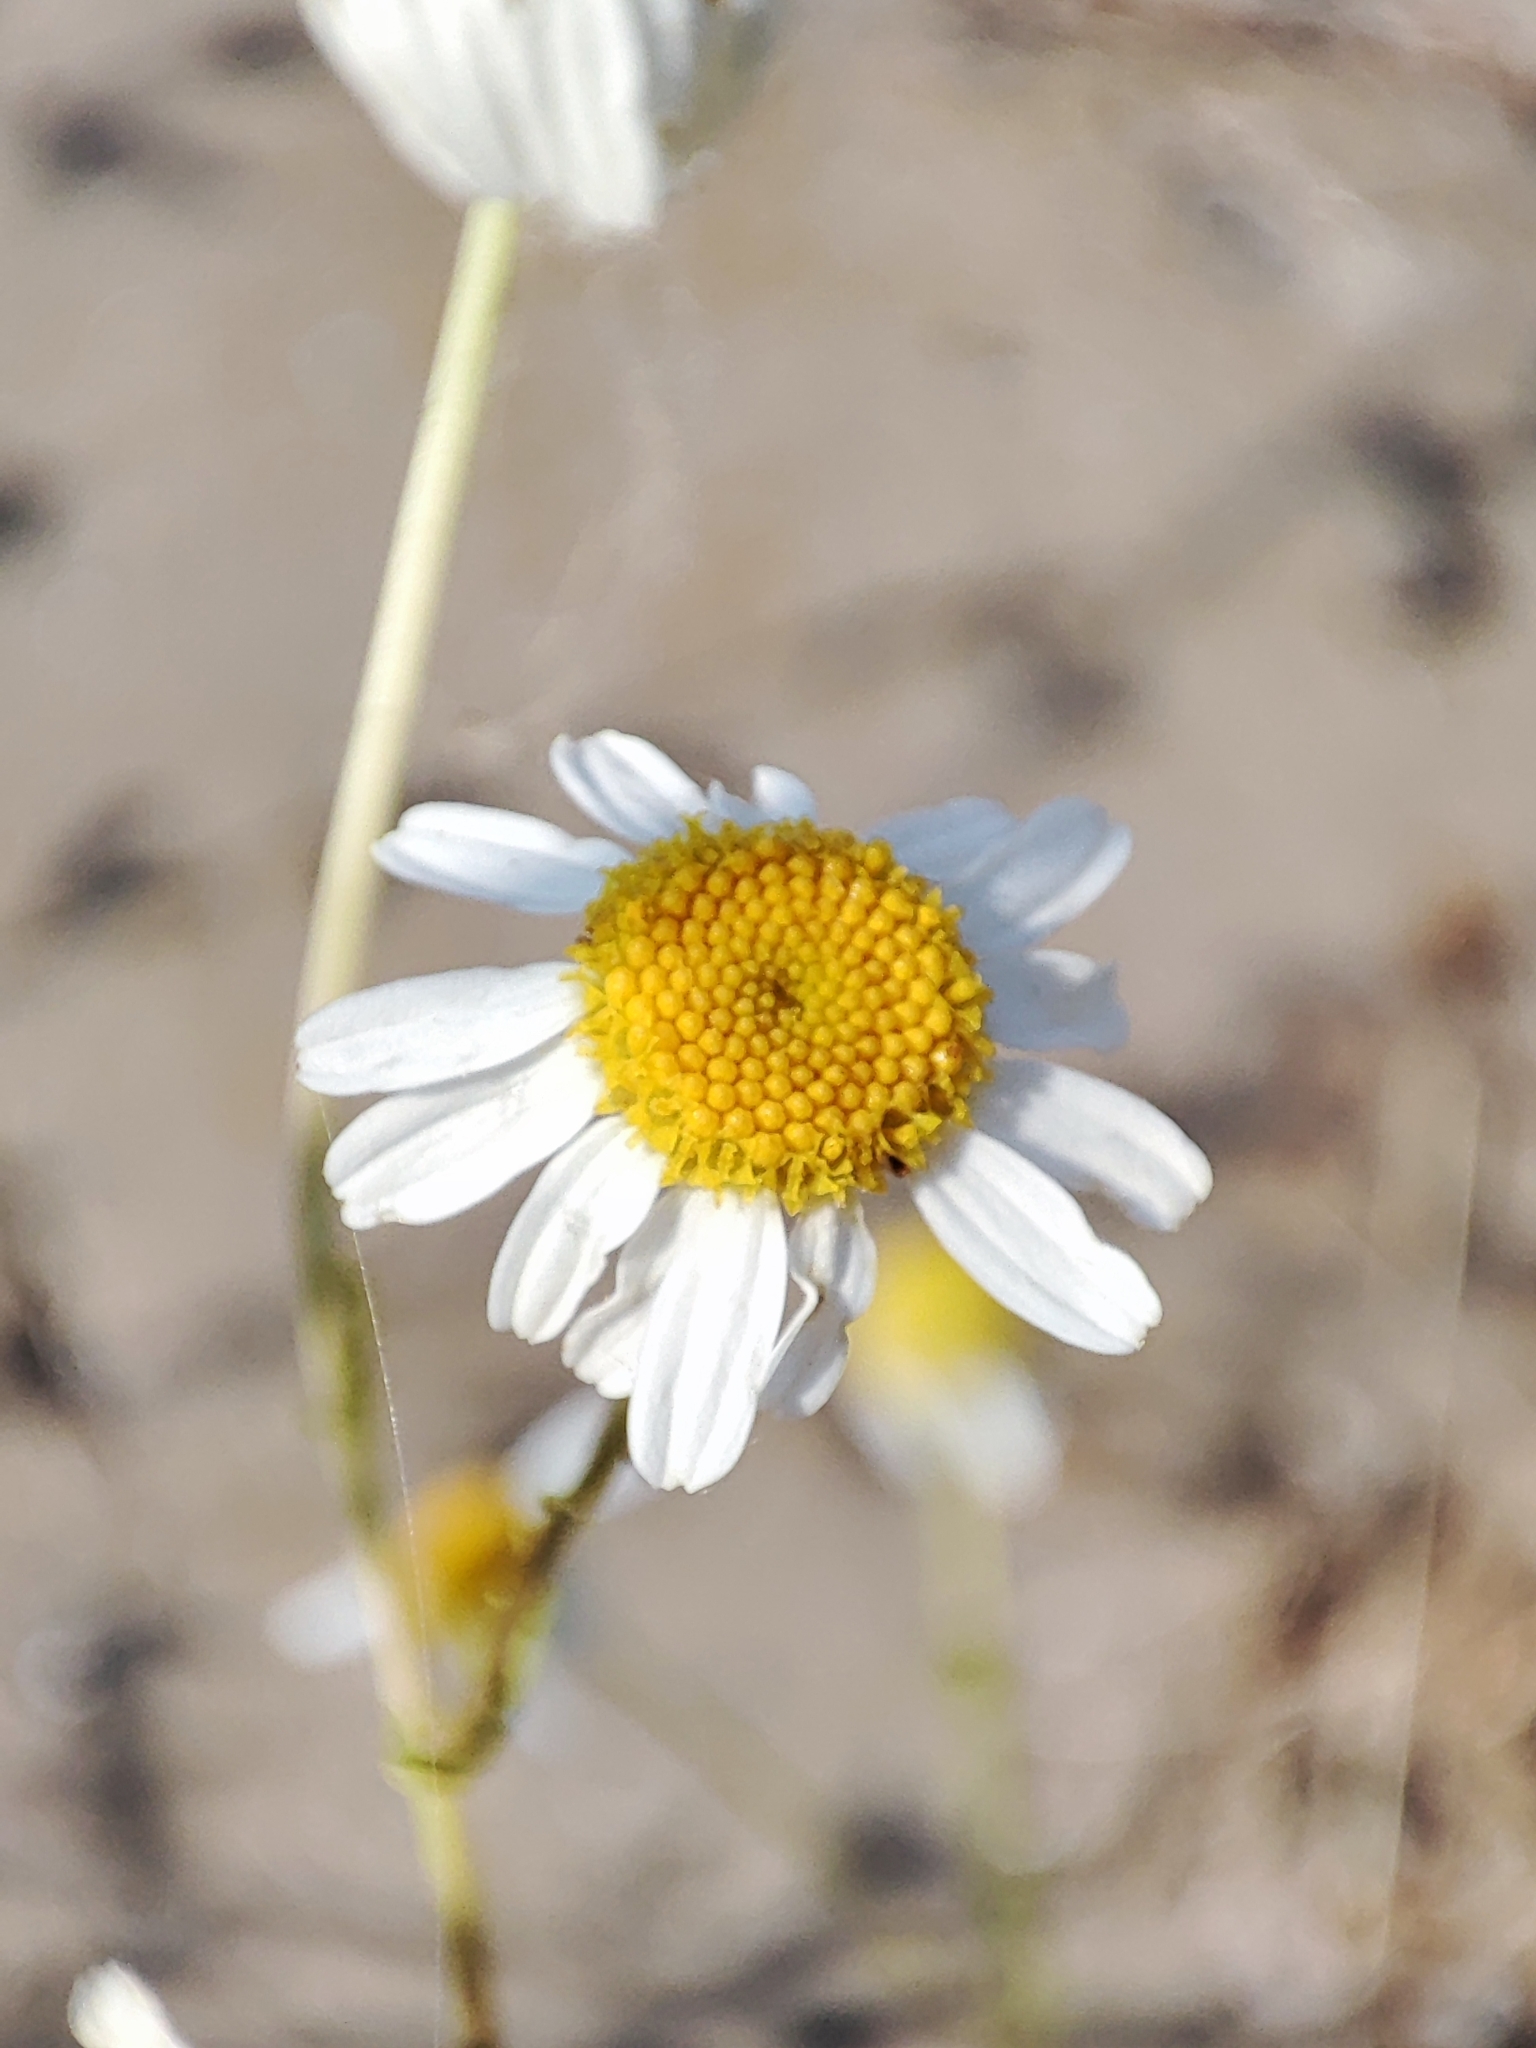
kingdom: Plantae
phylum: Tracheophyta
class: Magnoliopsida
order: Asterales
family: Asteraceae
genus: Tripleurospermum
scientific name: Tripleurospermum inodorum
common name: Scentless mayweed
